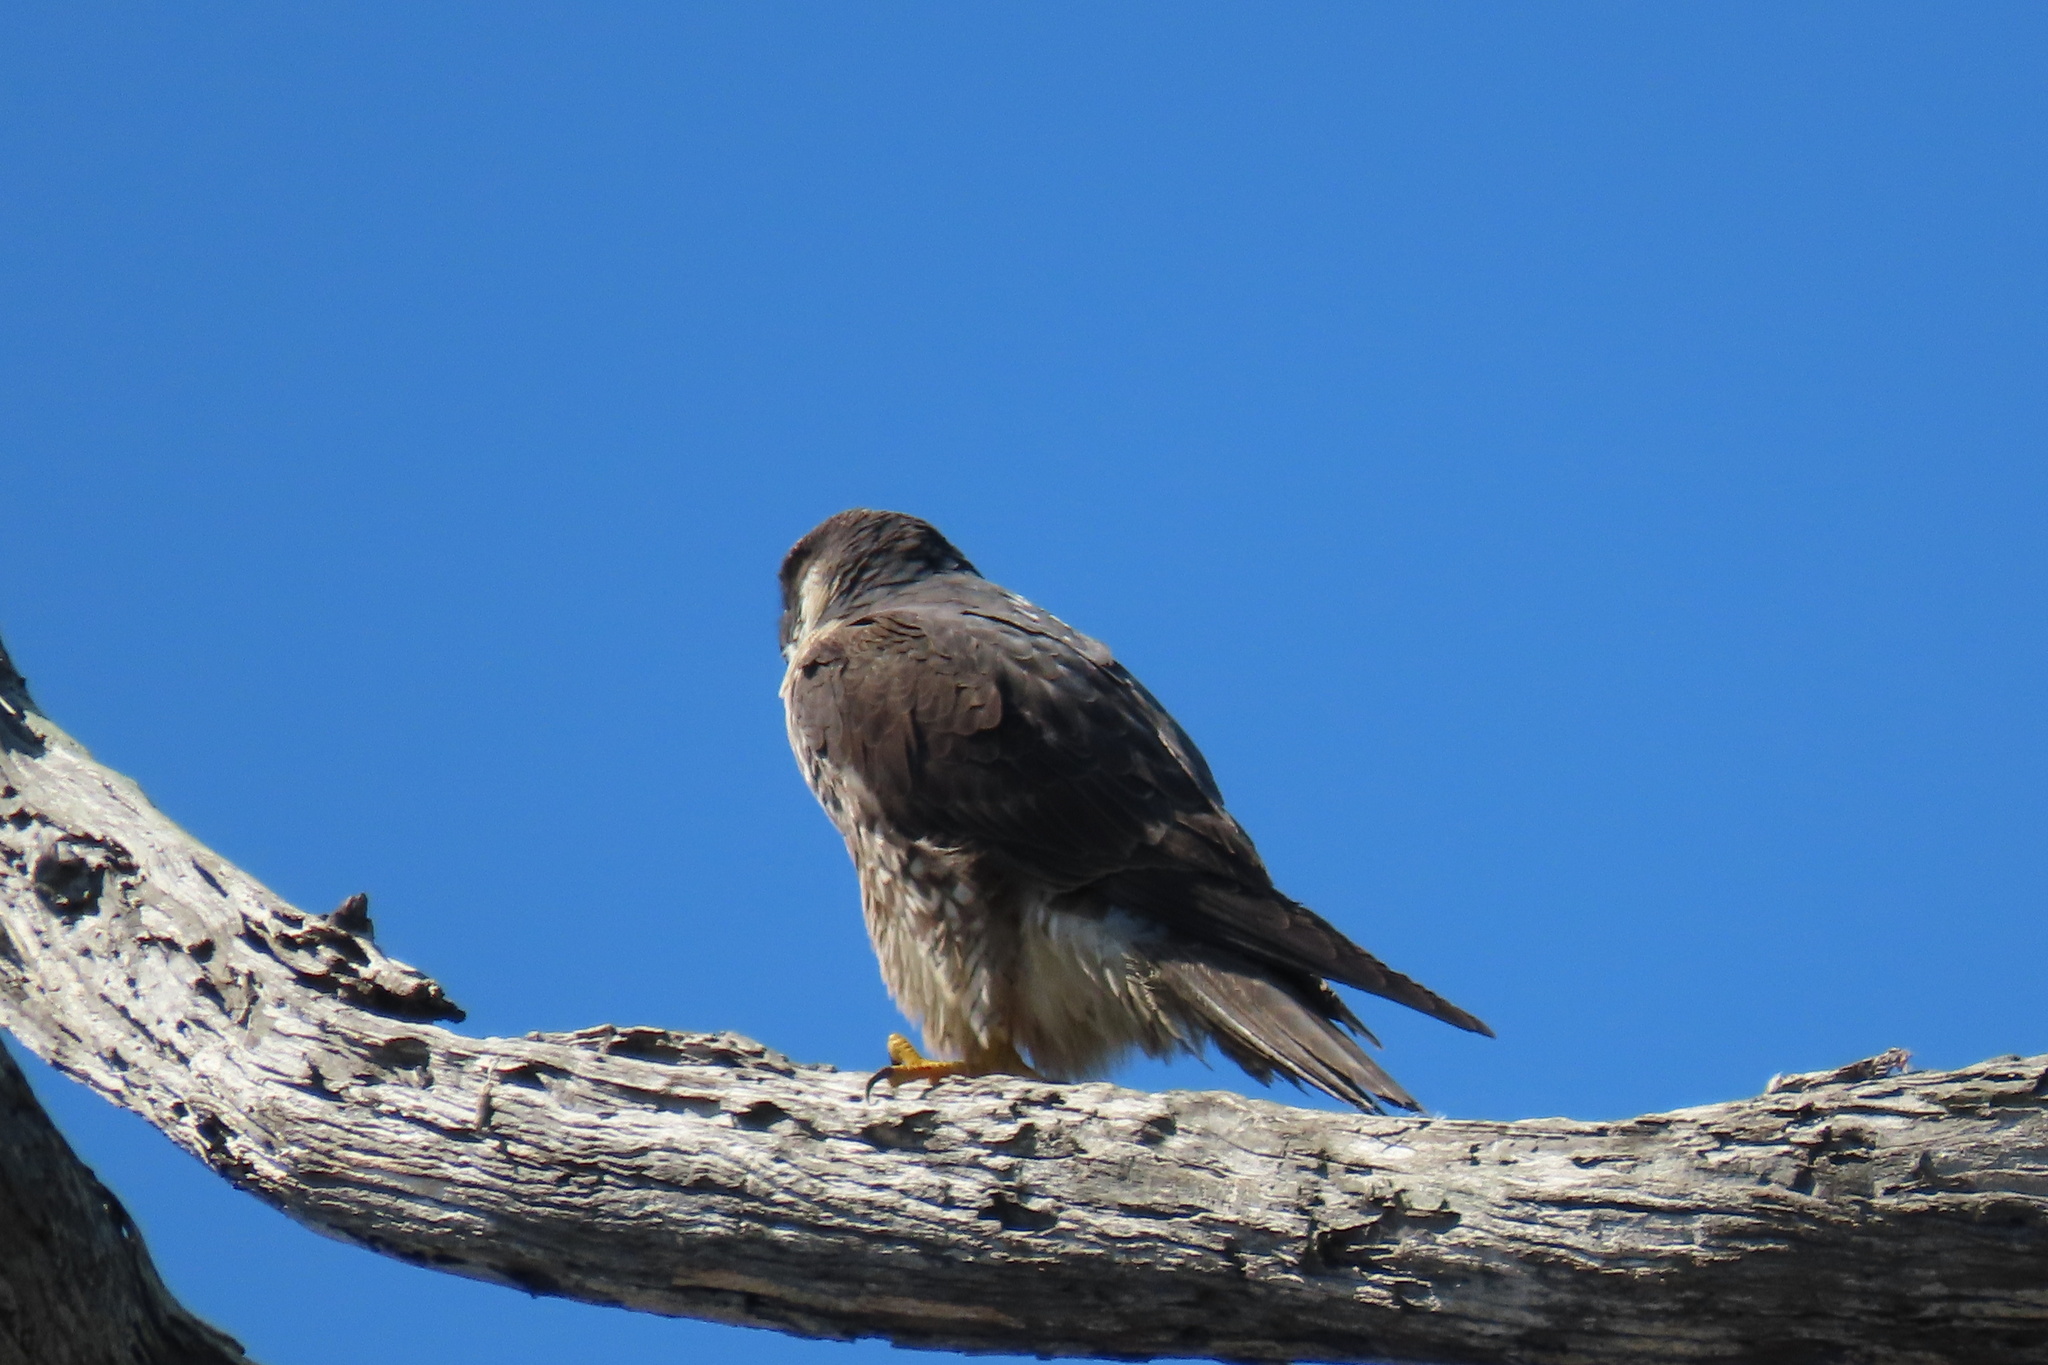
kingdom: Animalia
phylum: Chordata
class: Aves
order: Falconiformes
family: Falconidae
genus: Falco
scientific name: Falco peregrinus
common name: Peregrine falcon
